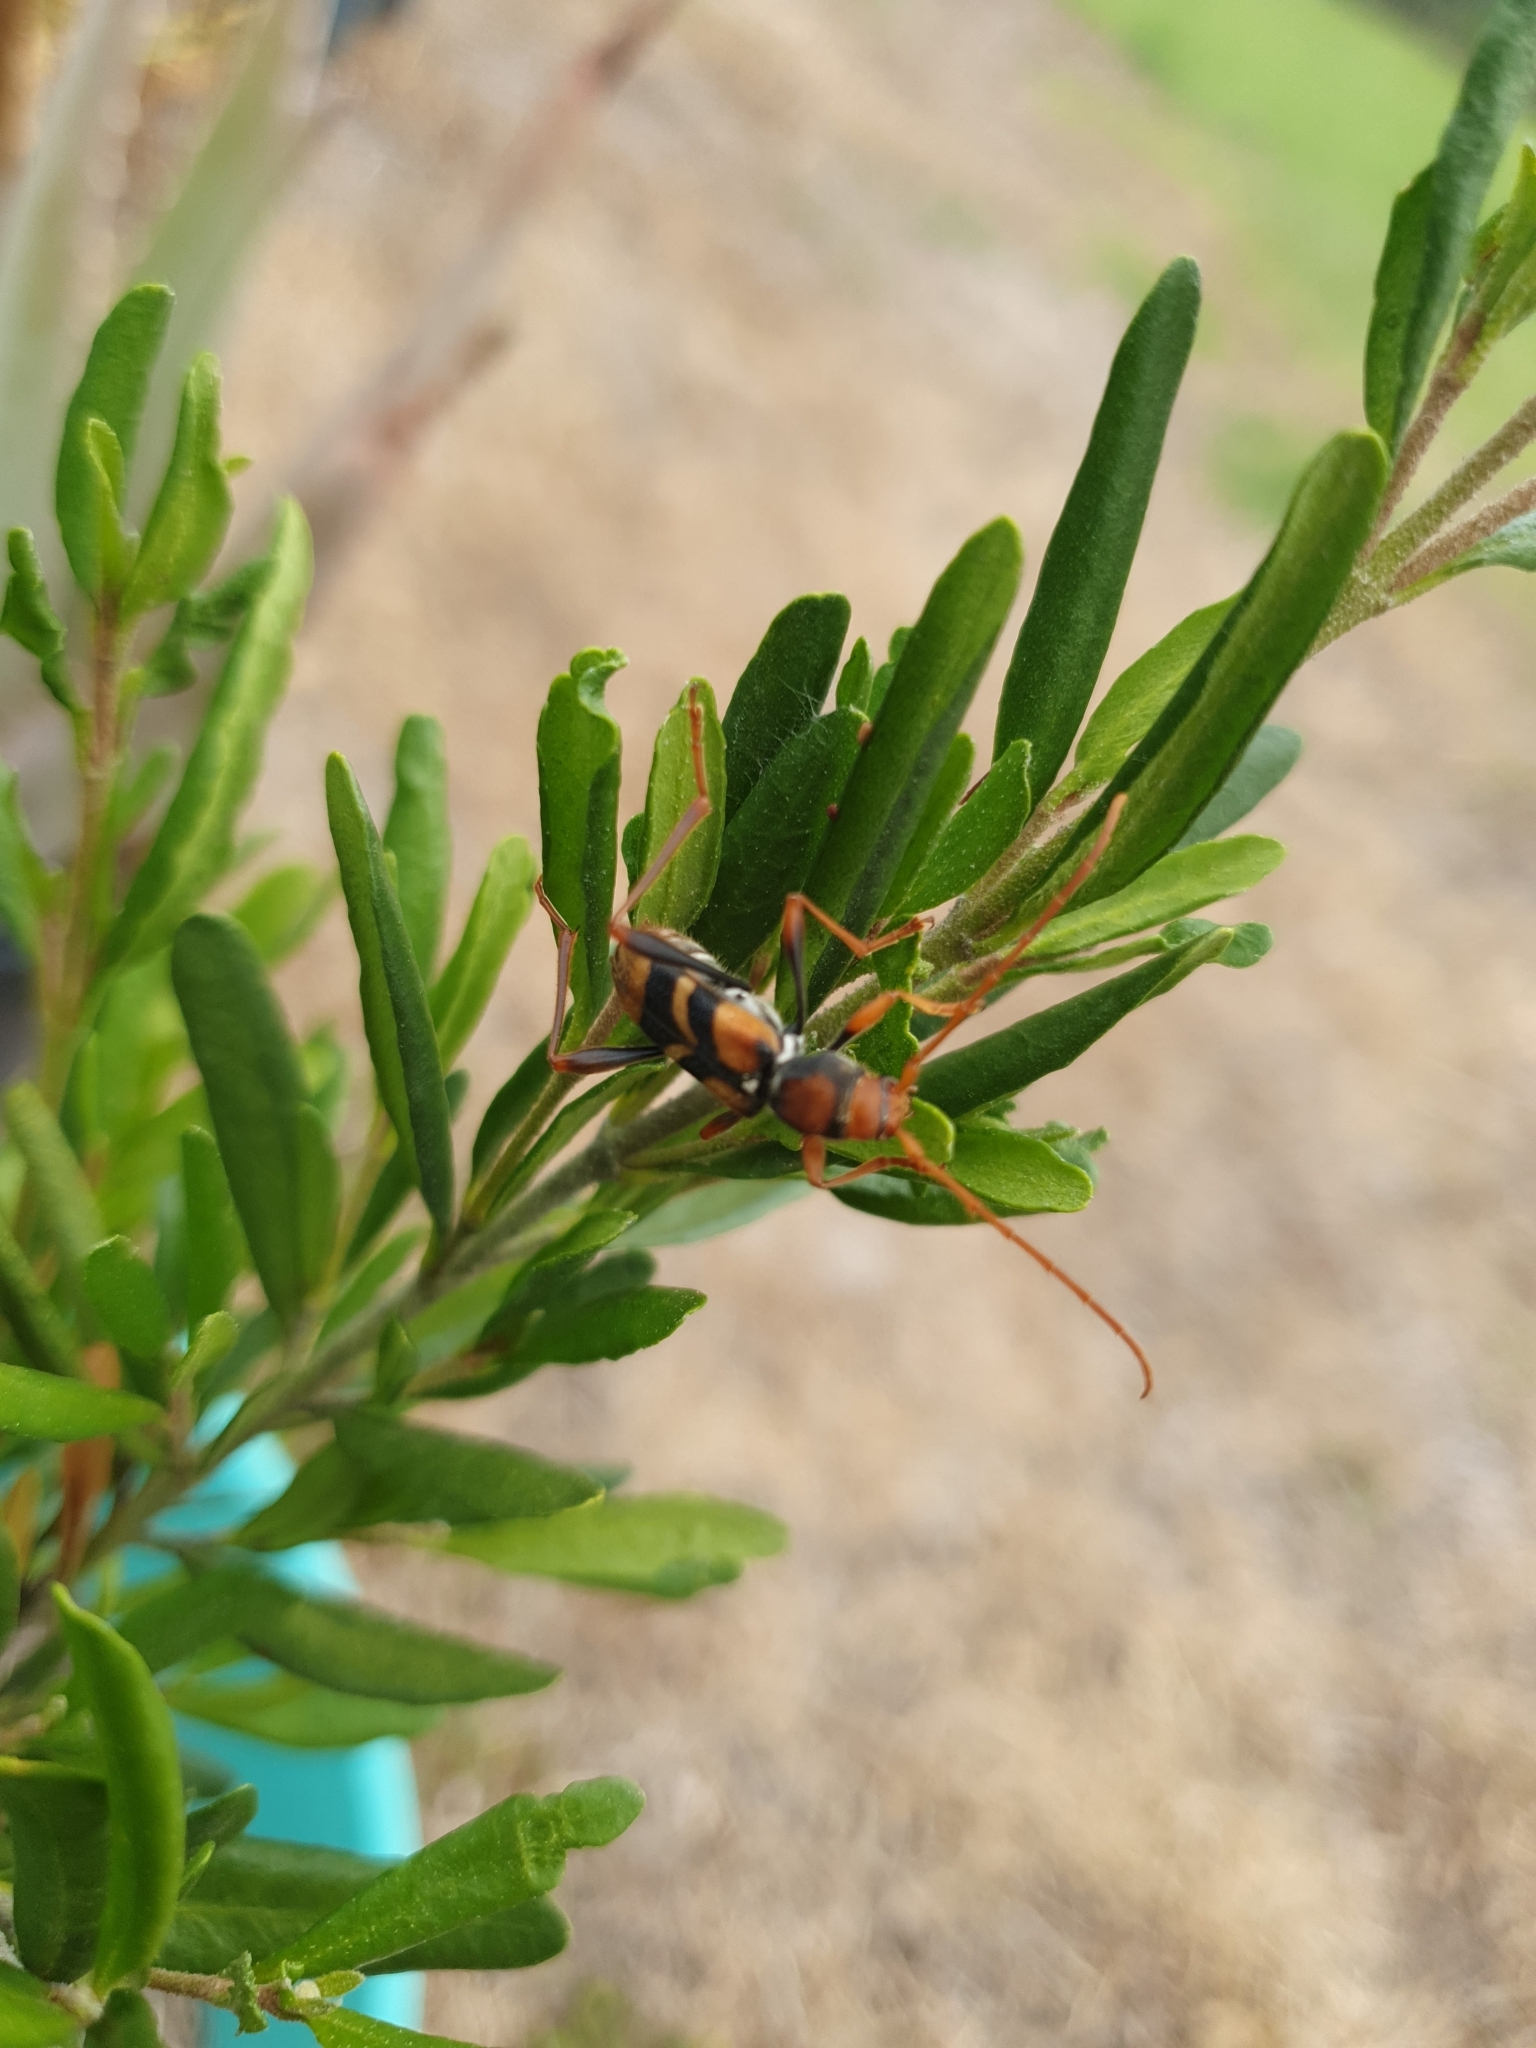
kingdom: Animalia
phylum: Arthropoda
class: Insecta
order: Coleoptera
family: Cerambycidae
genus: Aridaeus
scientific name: Aridaeus thoracicus
